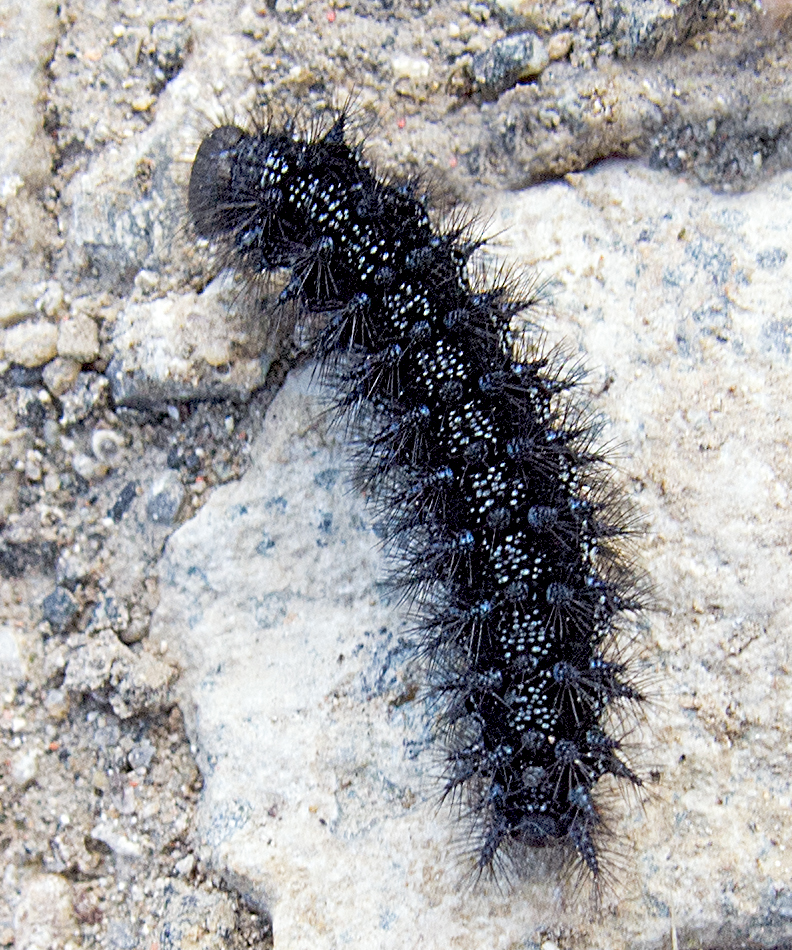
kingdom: Animalia
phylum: Arthropoda
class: Insecta
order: Lepidoptera
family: Nymphalidae
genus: Euphydryas
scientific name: Euphydryas aurinia
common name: Marsh fritillary
